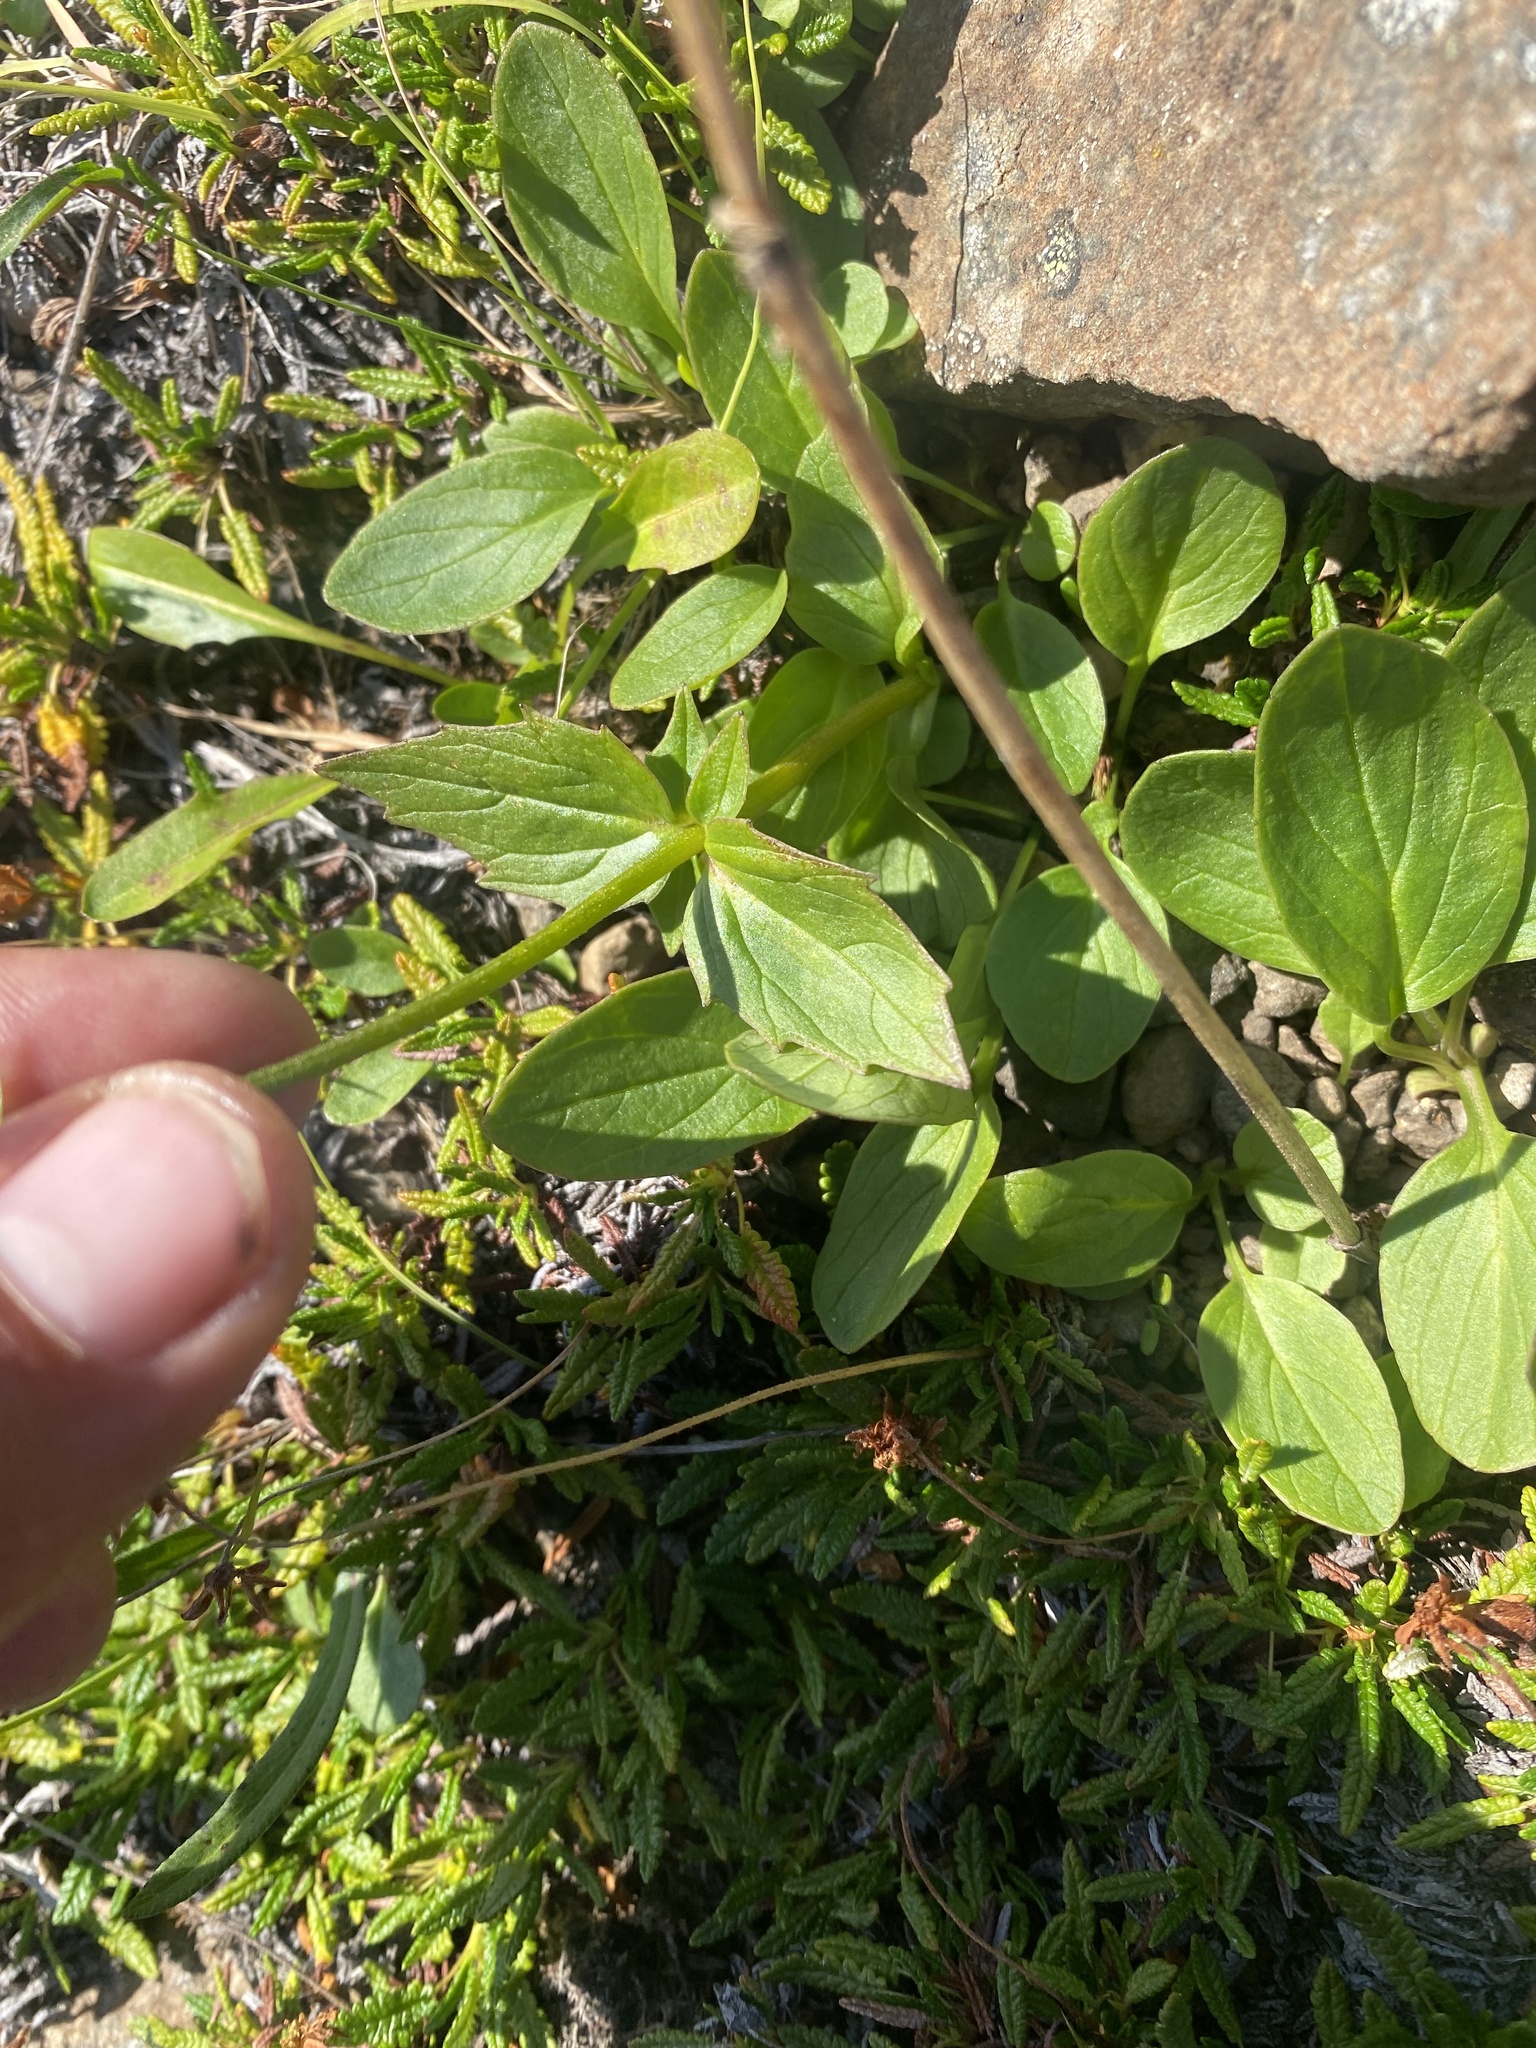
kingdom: Plantae
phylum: Tracheophyta
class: Magnoliopsida
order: Dipsacales
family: Caprifoliaceae
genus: Valeriana
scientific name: Valeriana capitata
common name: Capitate valerian
